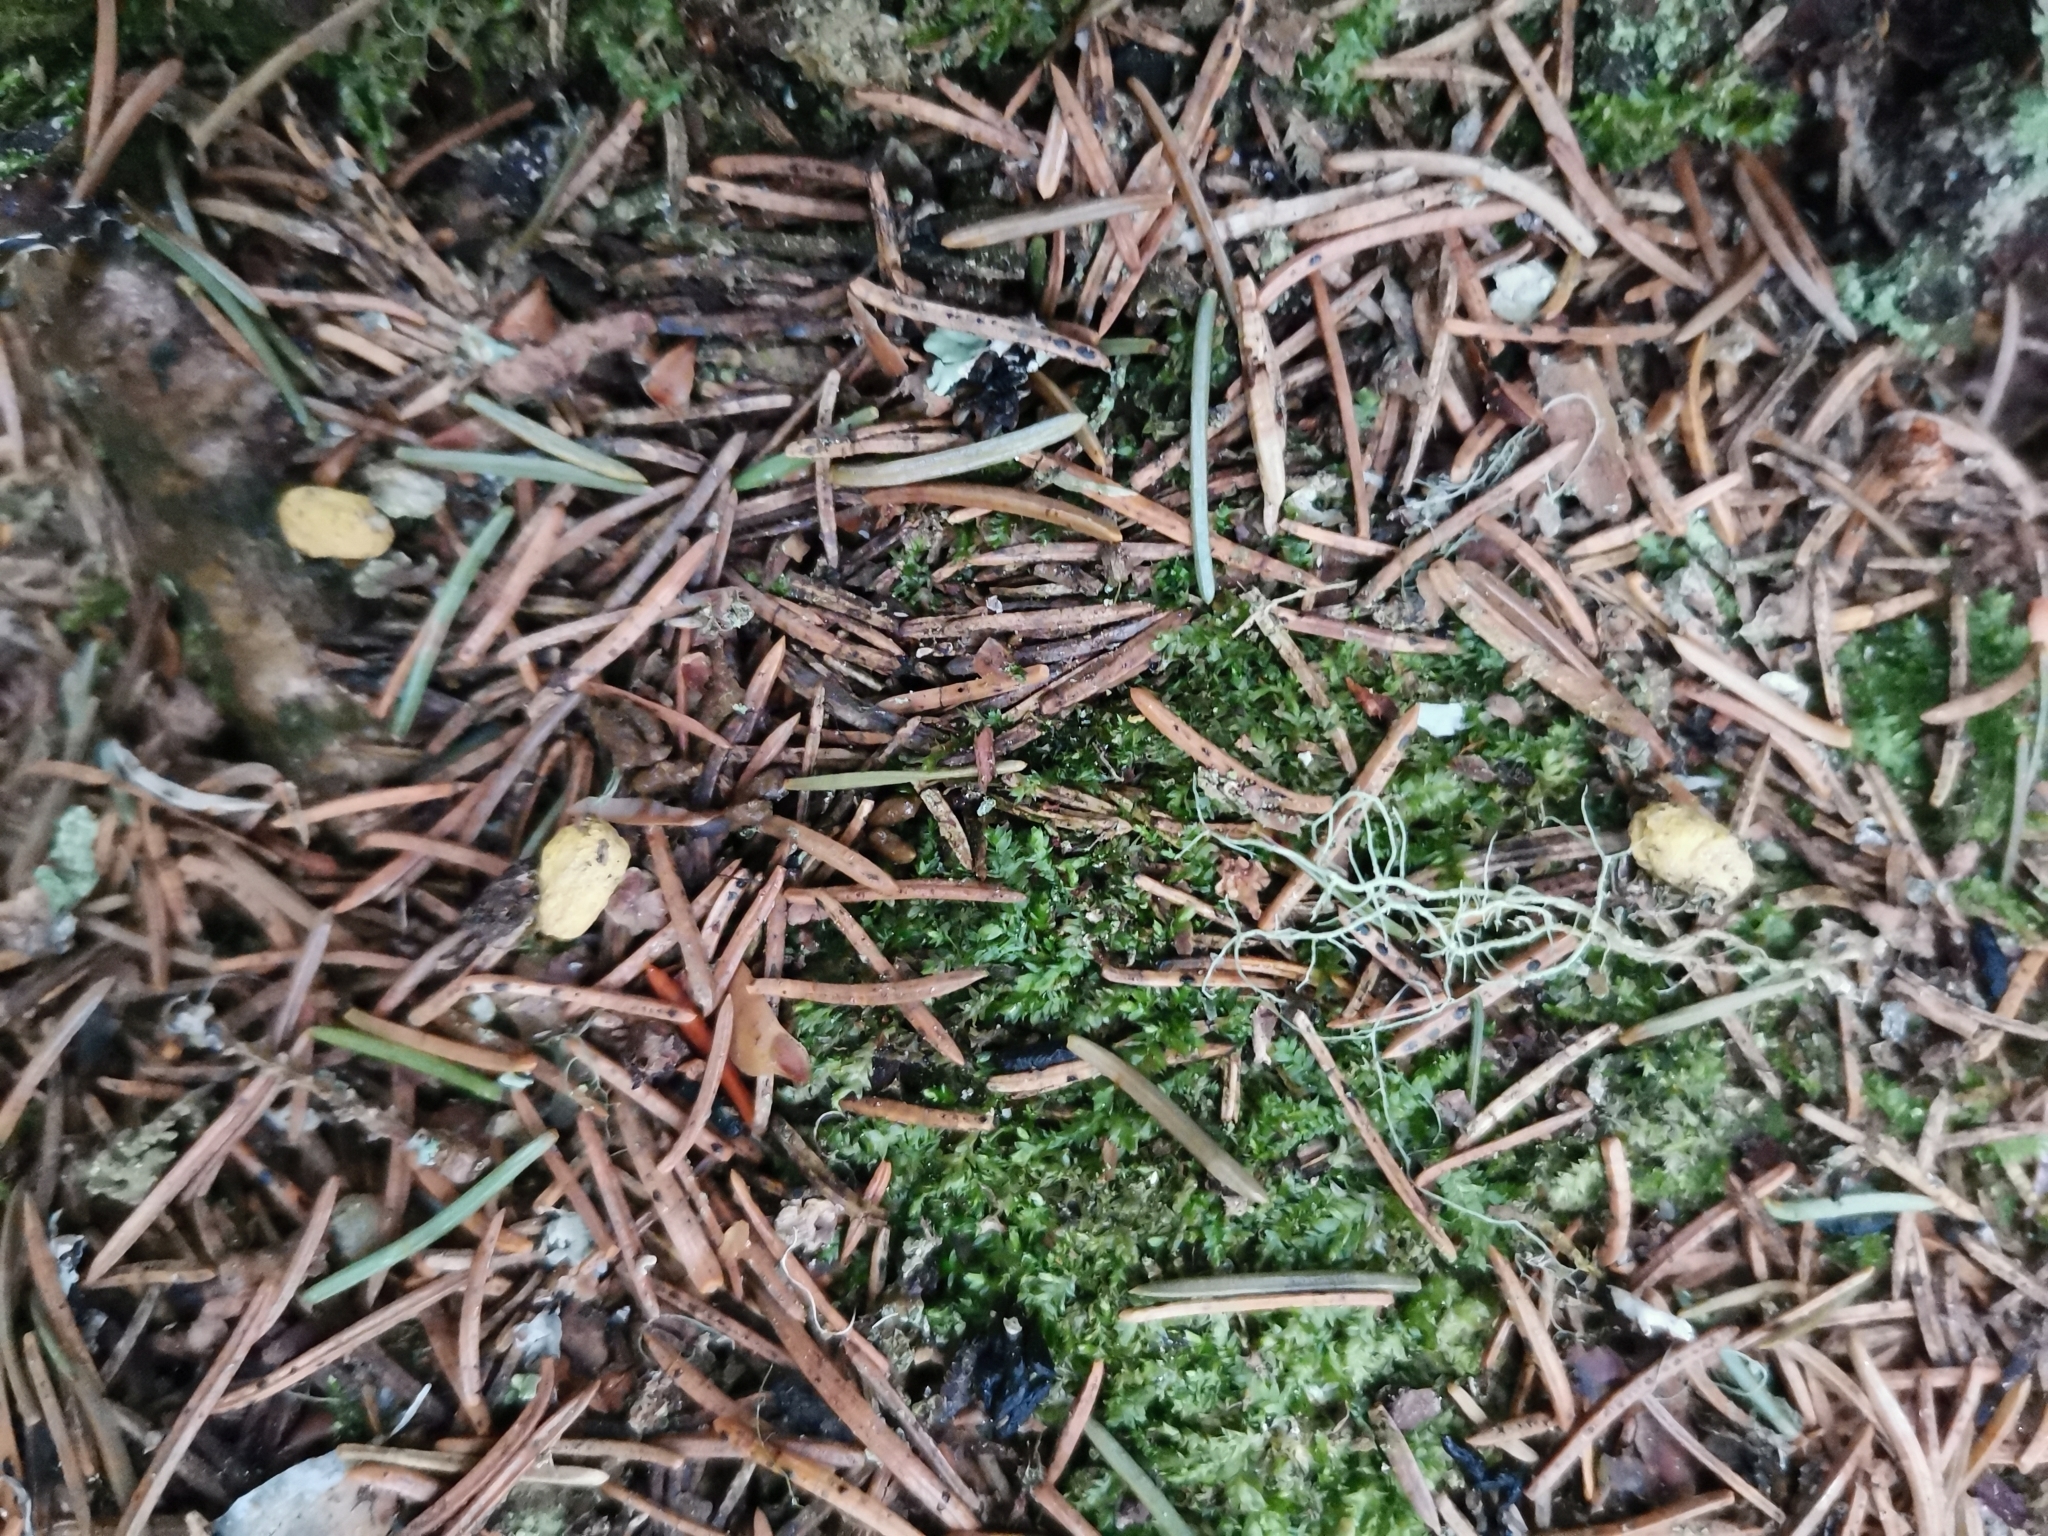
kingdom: Animalia
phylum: Chordata
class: Mammalia
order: Rodentia
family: Sciuridae
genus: Pteromys
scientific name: Pteromys volans
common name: Siberian flying squirrel
